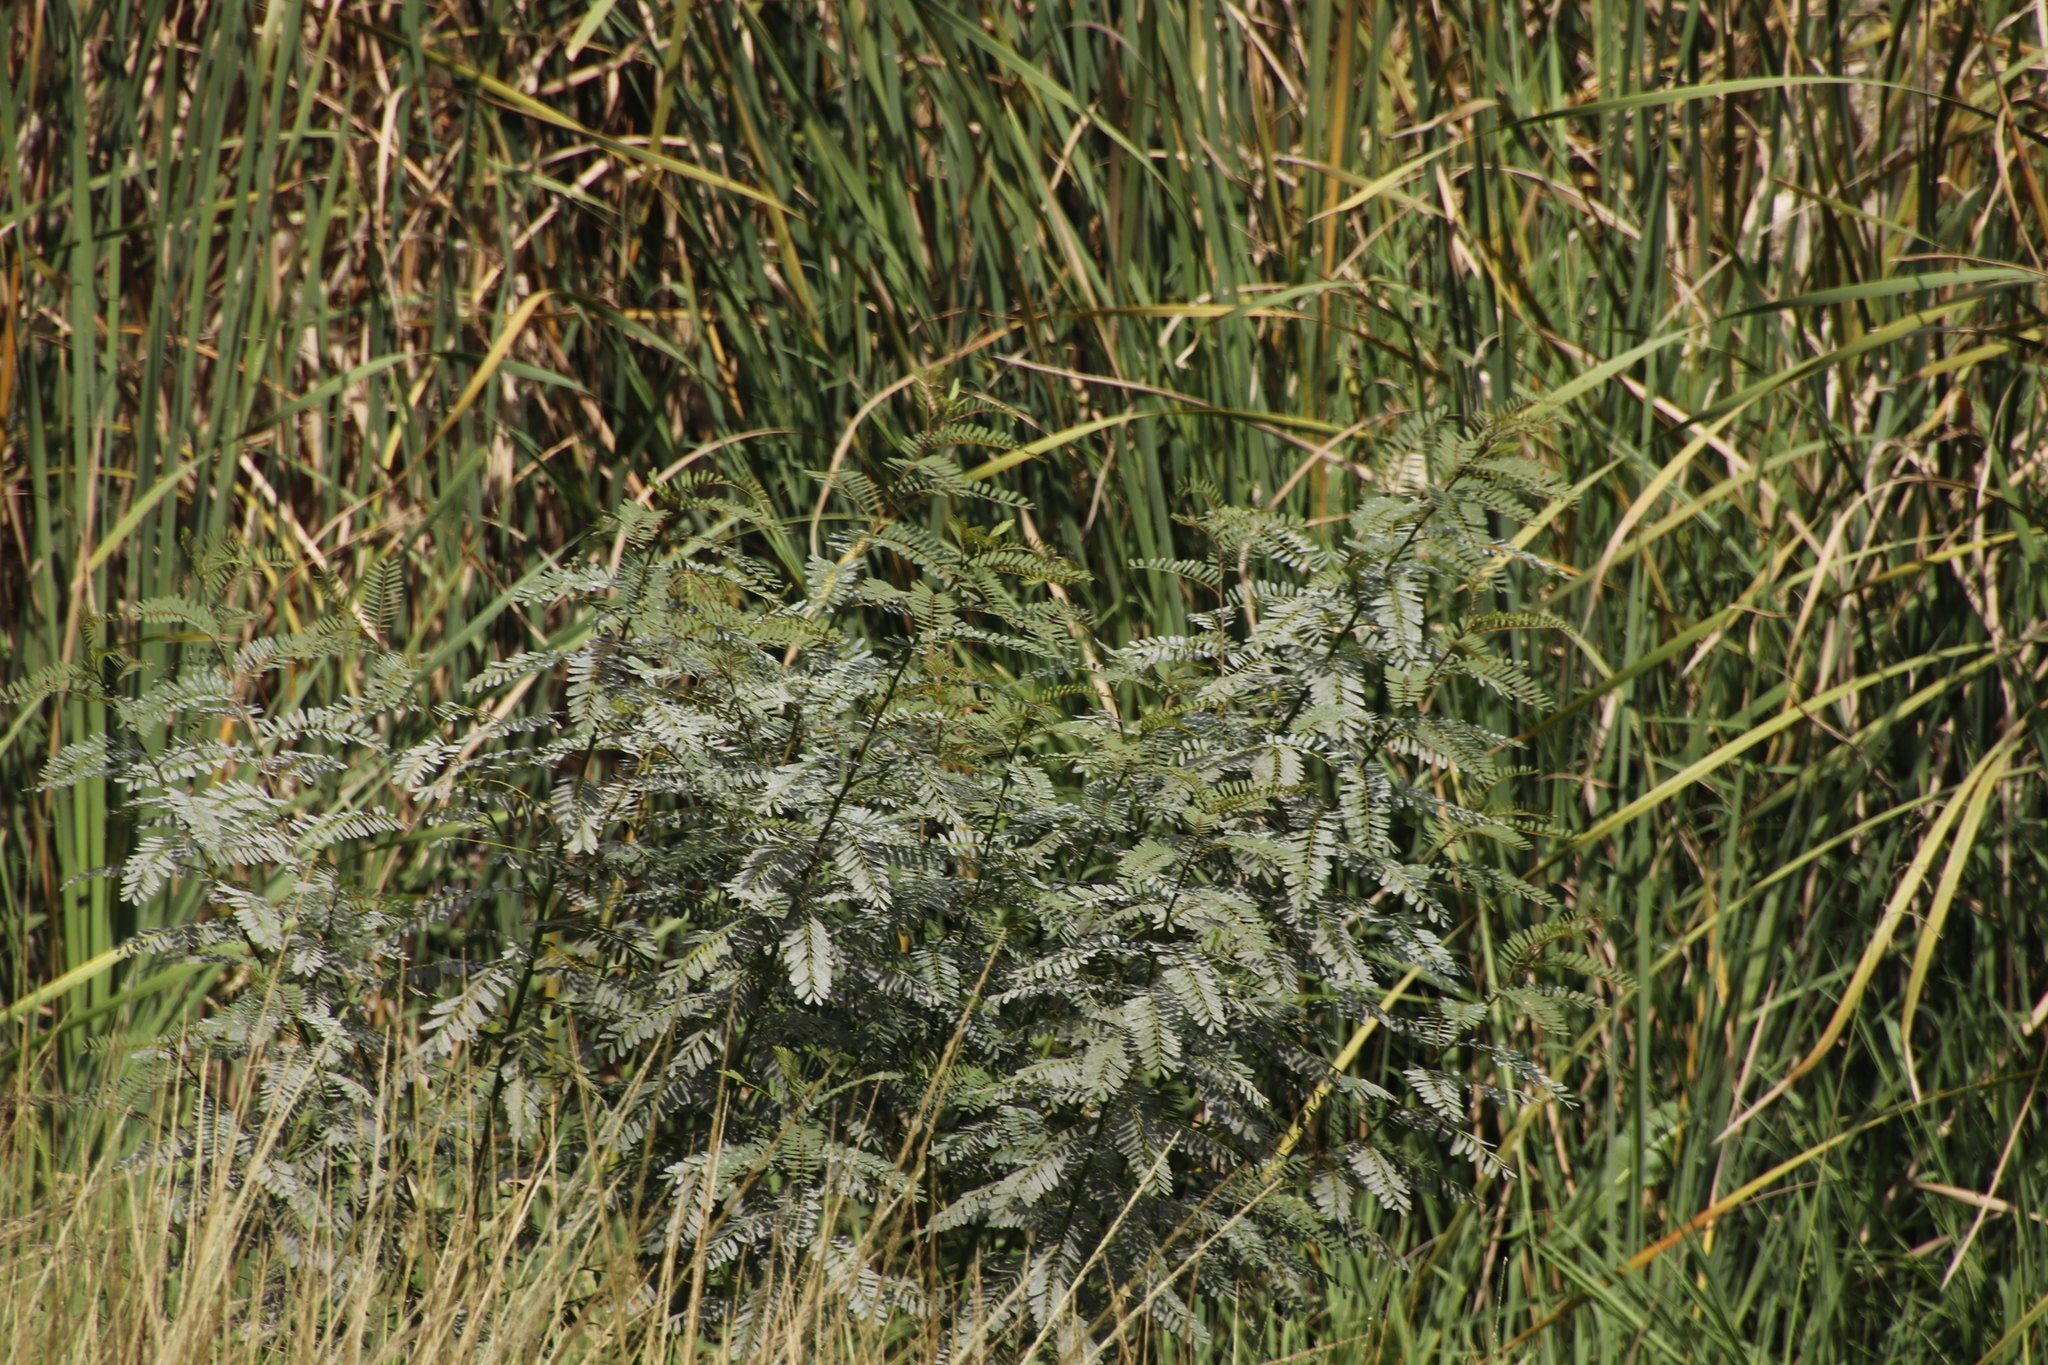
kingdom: Plantae
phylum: Tracheophyta
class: Magnoliopsida
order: Fabales
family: Fabaceae
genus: Sesbania
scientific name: Sesbania punicea
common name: Rattlebox
